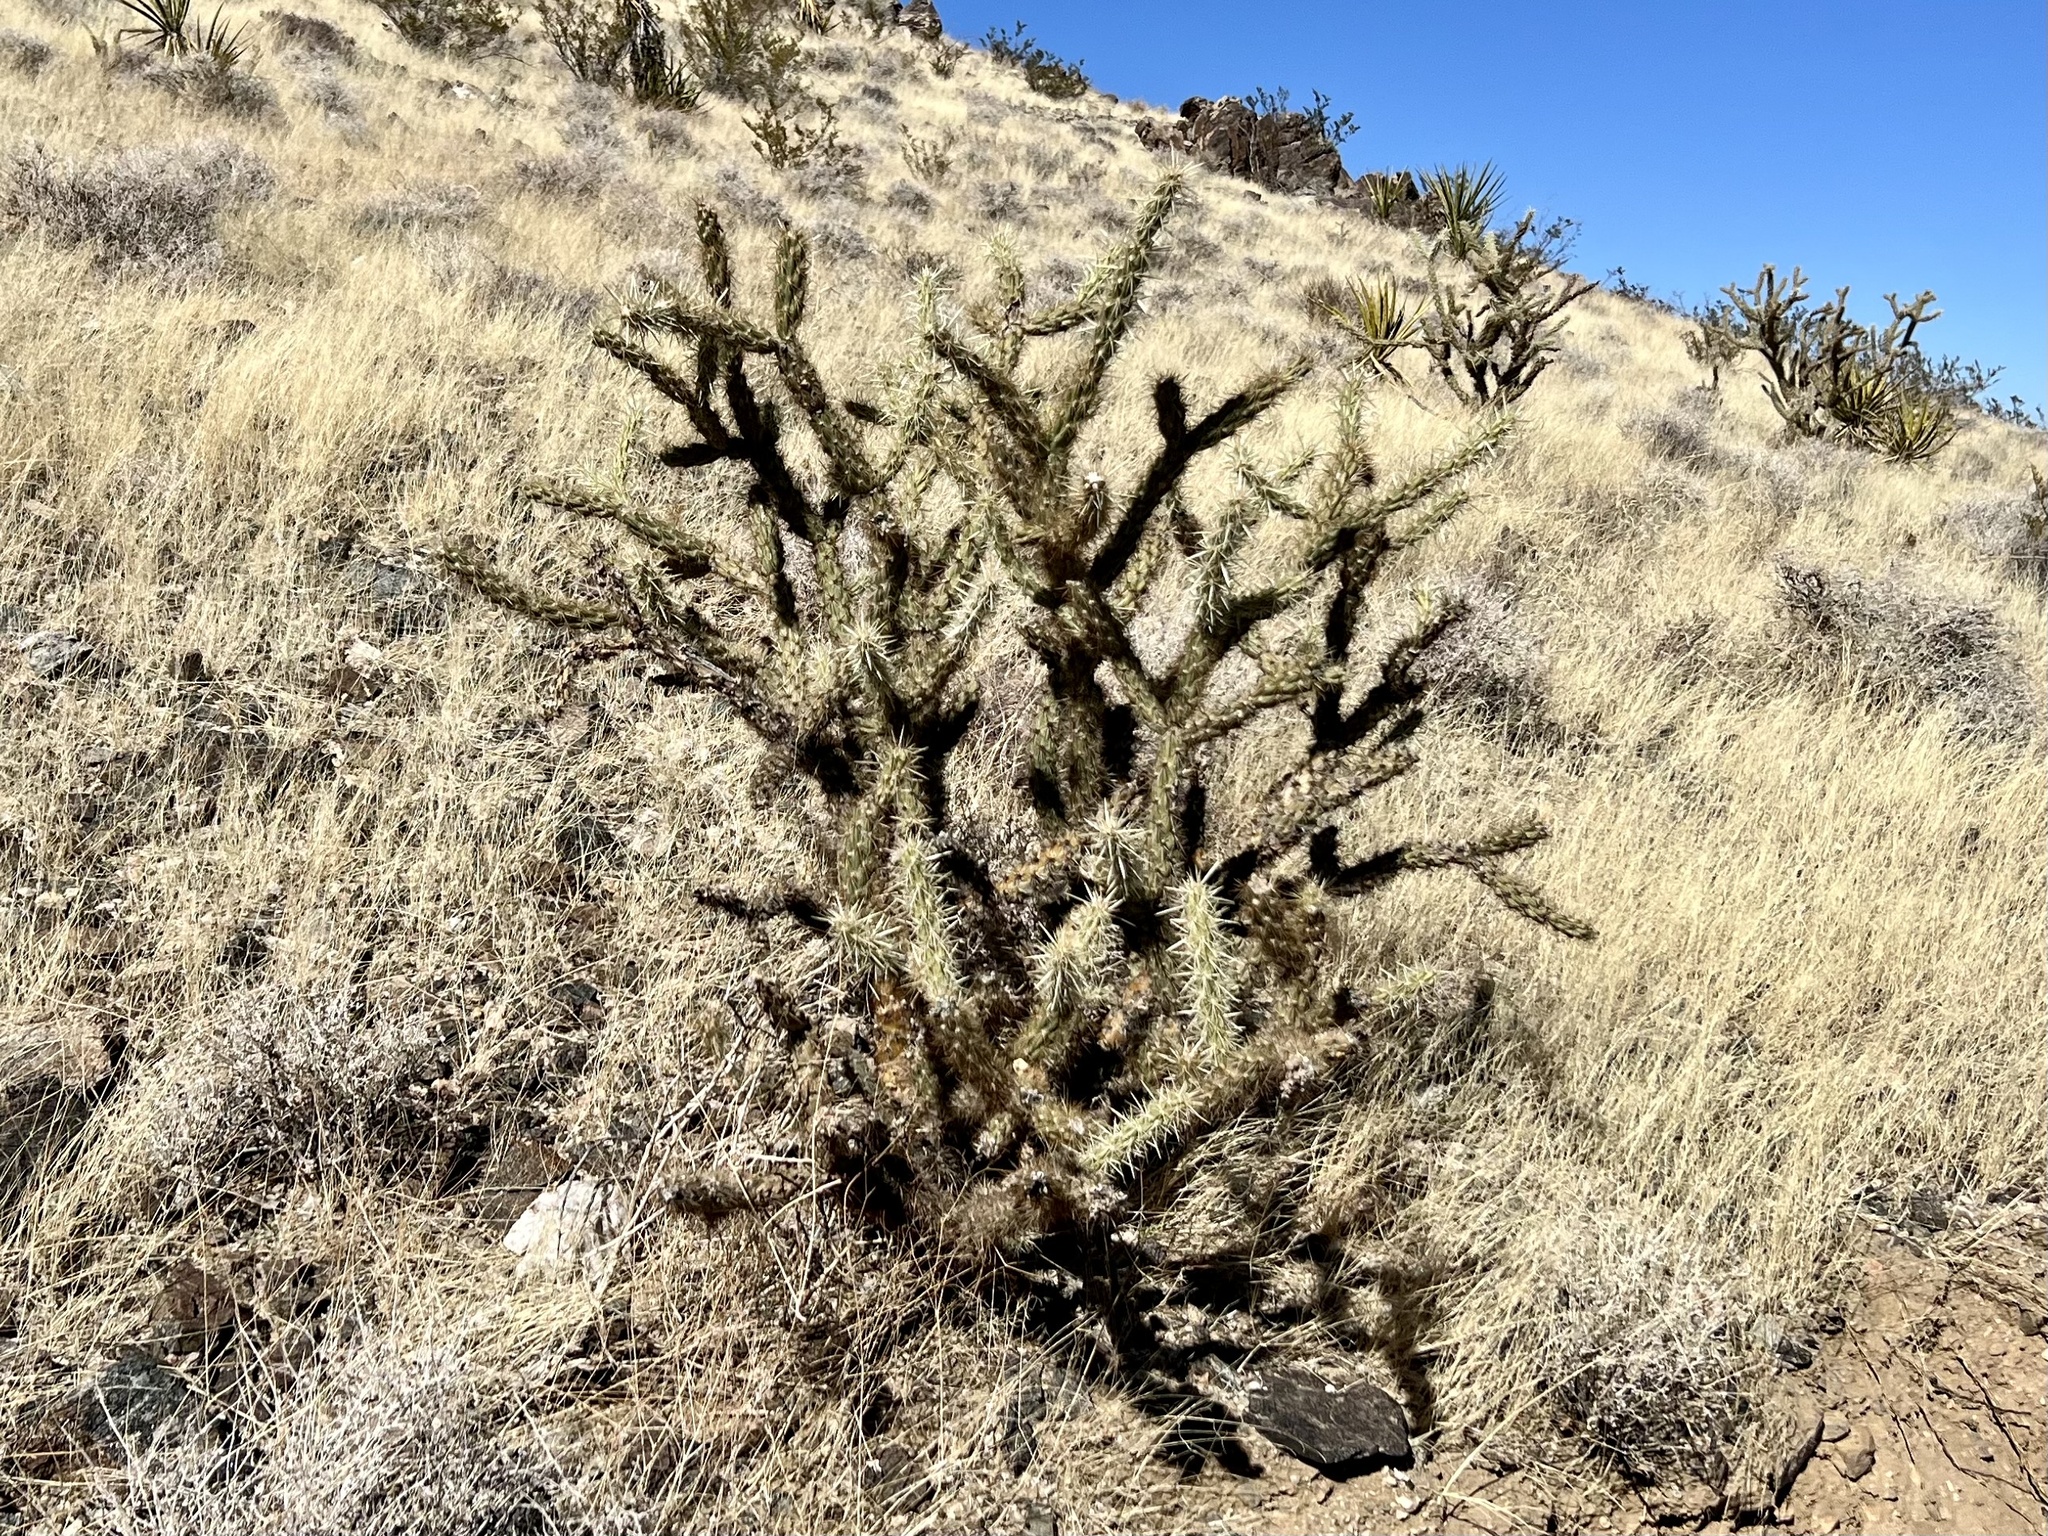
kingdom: Plantae
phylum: Tracheophyta
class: Magnoliopsida
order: Caryophyllales
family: Cactaceae
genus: Cylindropuntia
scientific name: Cylindropuntia acanthocarpa
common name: Buckhorn cholla
